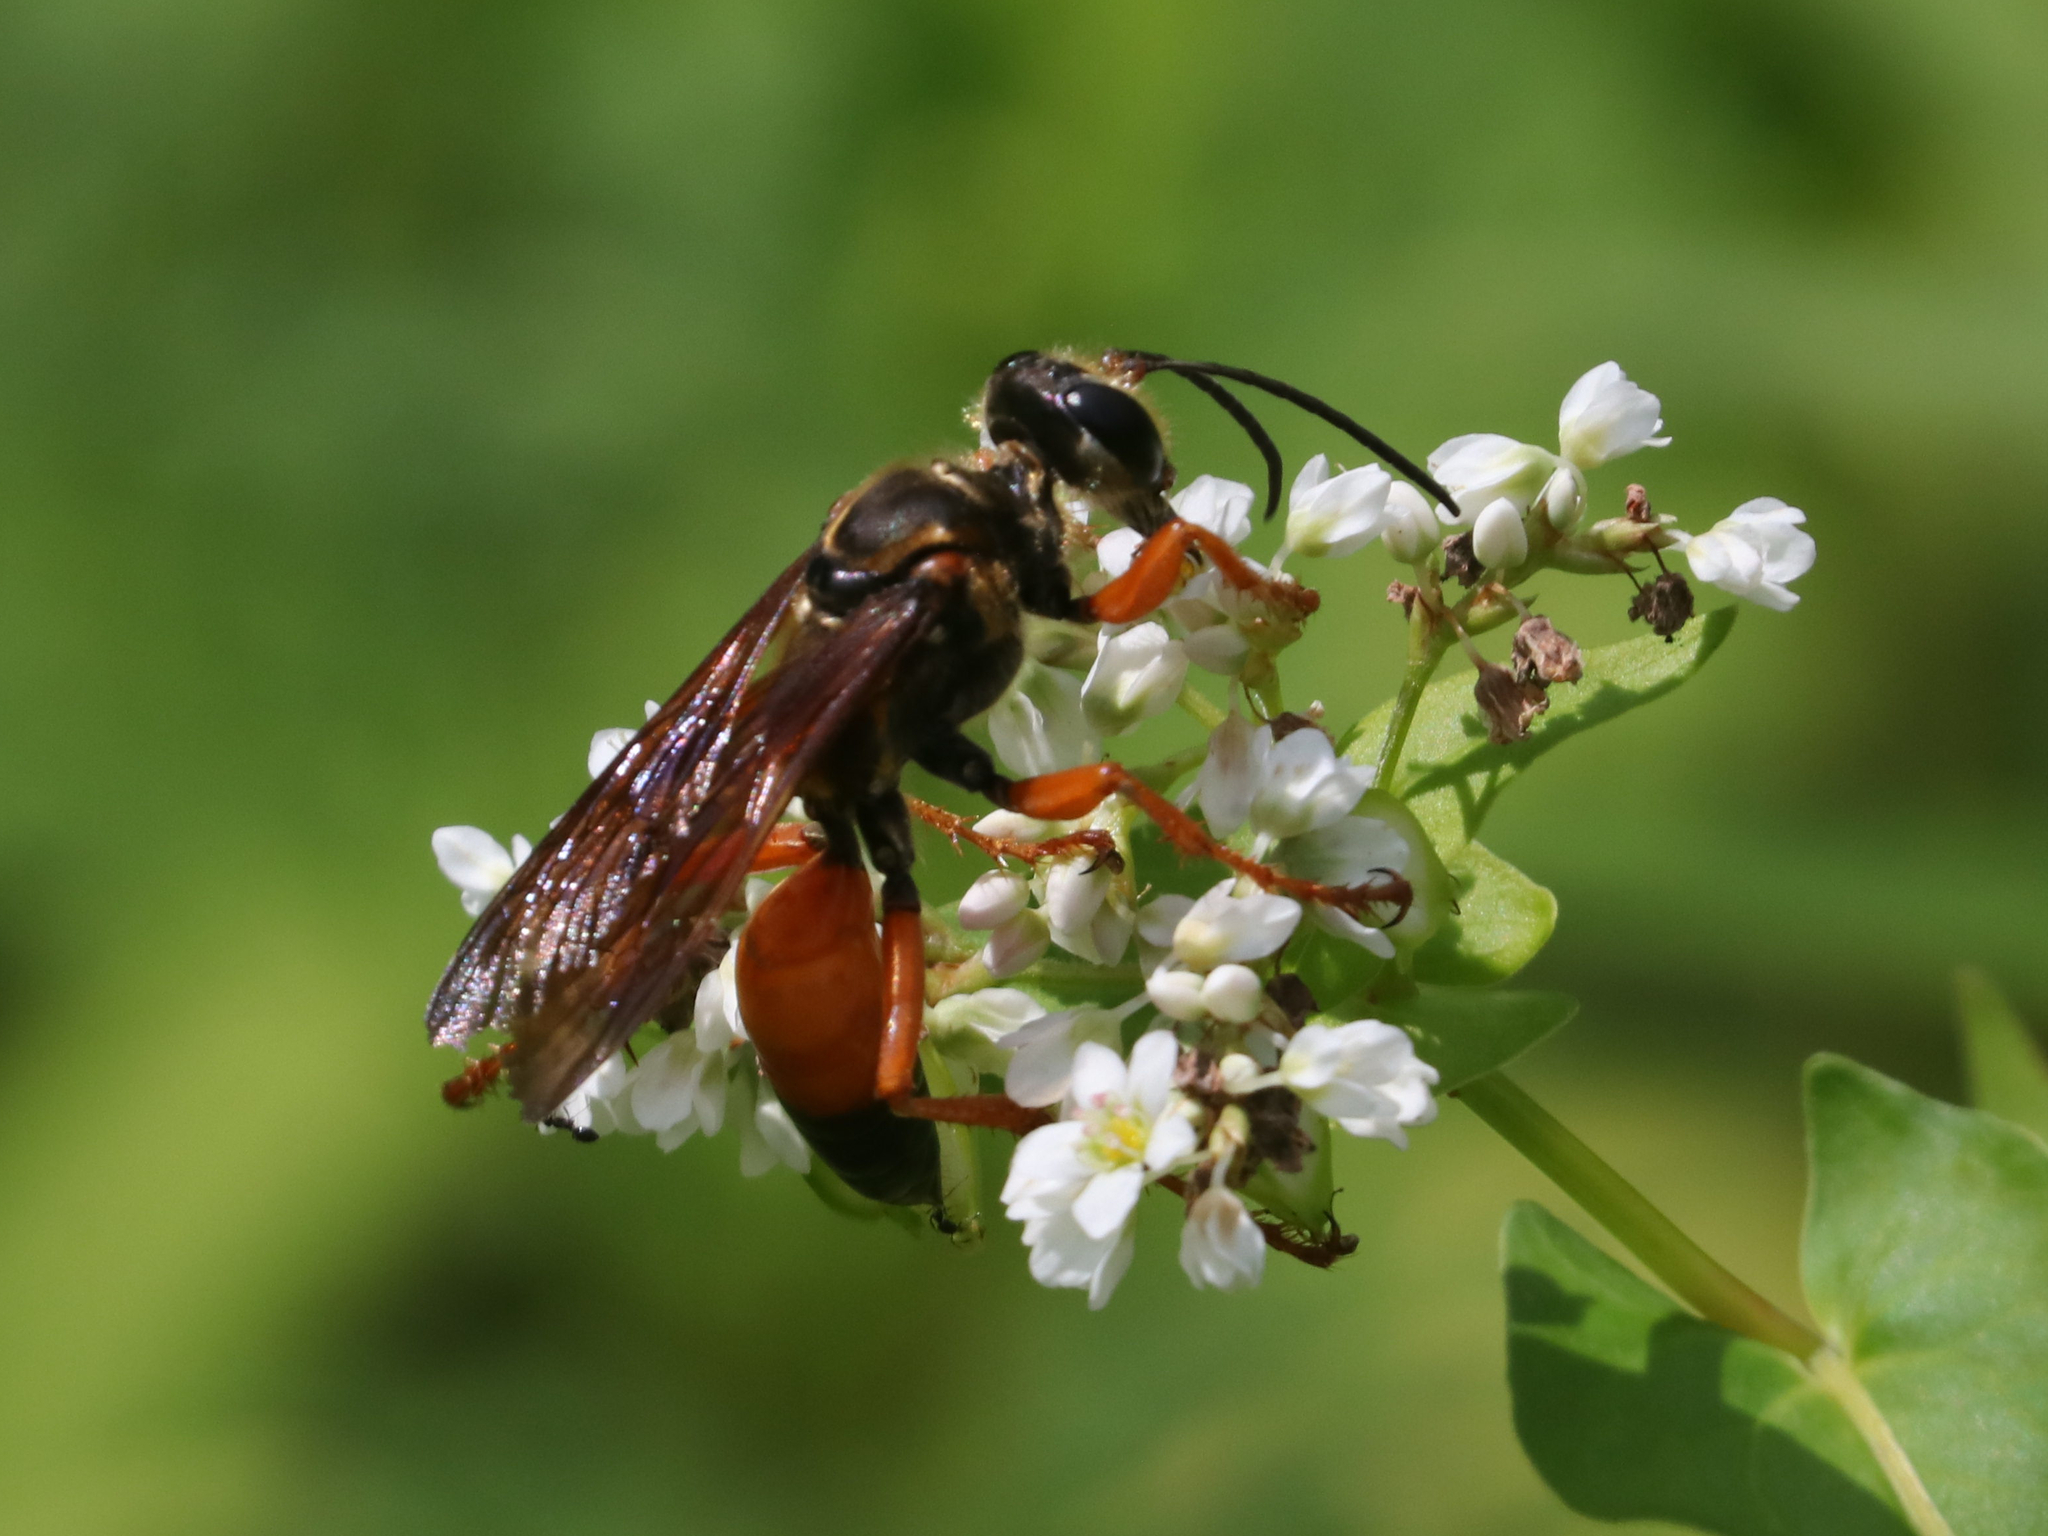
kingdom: Animalia
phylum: Arthropoda
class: Insecta
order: Hymenoptera
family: Sphecidae
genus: Sphex
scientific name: Sphex ichneumoneus
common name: Great golden digger wasp
